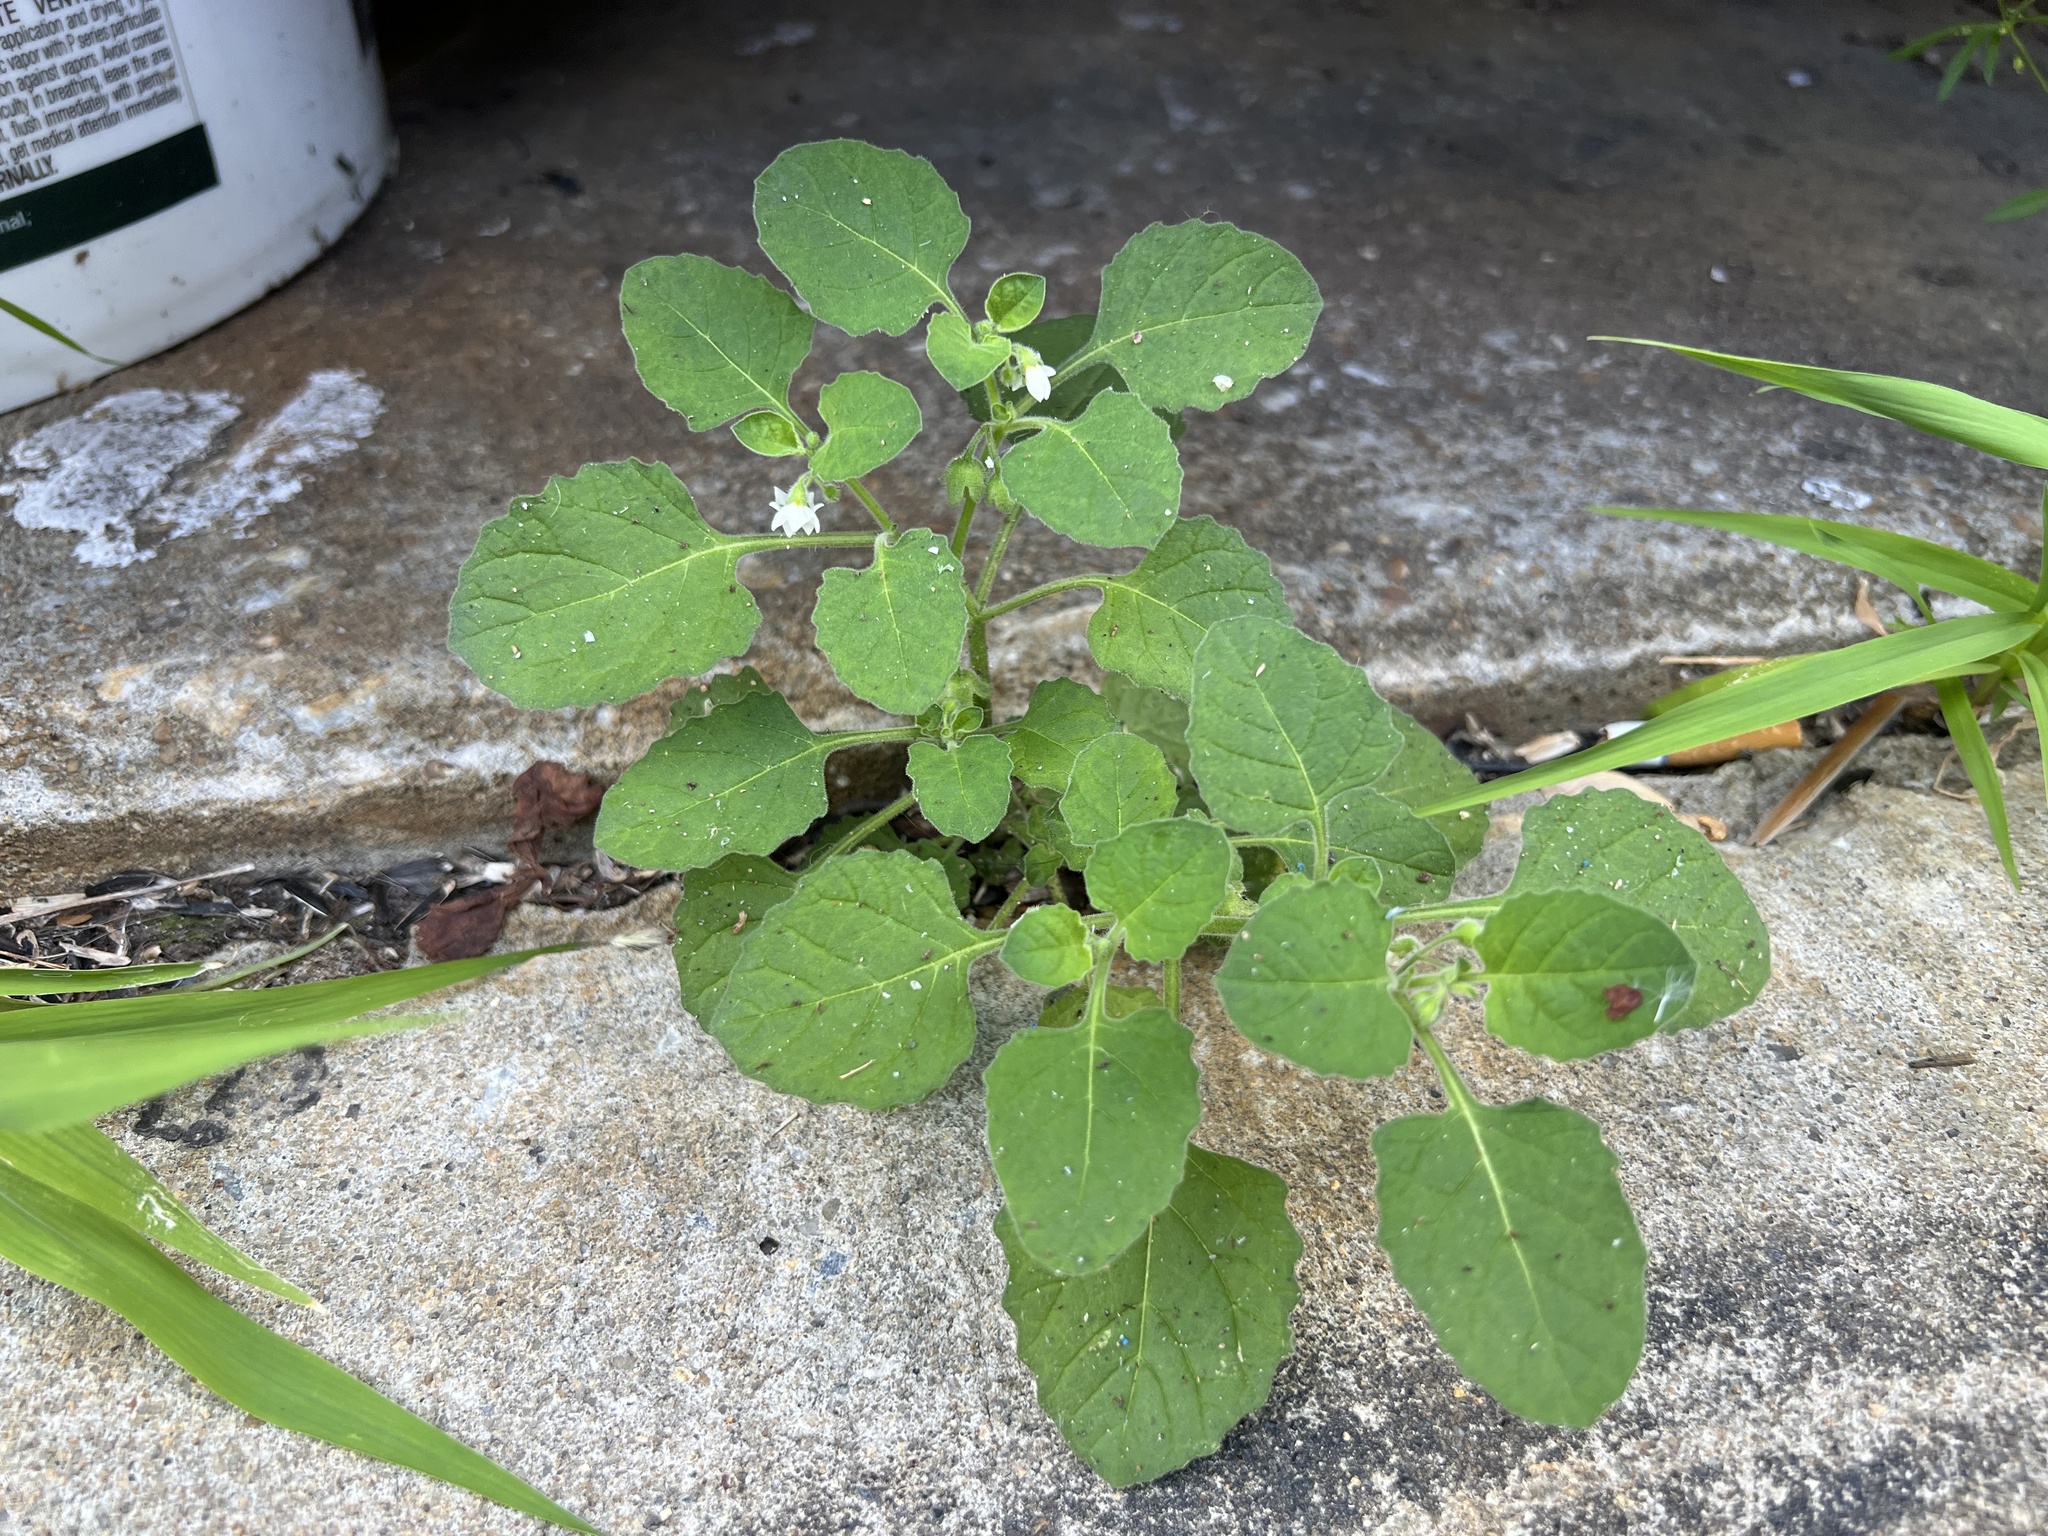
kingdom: Plantae
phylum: Tracheophyta
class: Magnoliopsida
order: Solanales
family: Solanaceae
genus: Solanum
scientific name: Solanum sarrachoides
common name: Leafy-fruited nightshade
